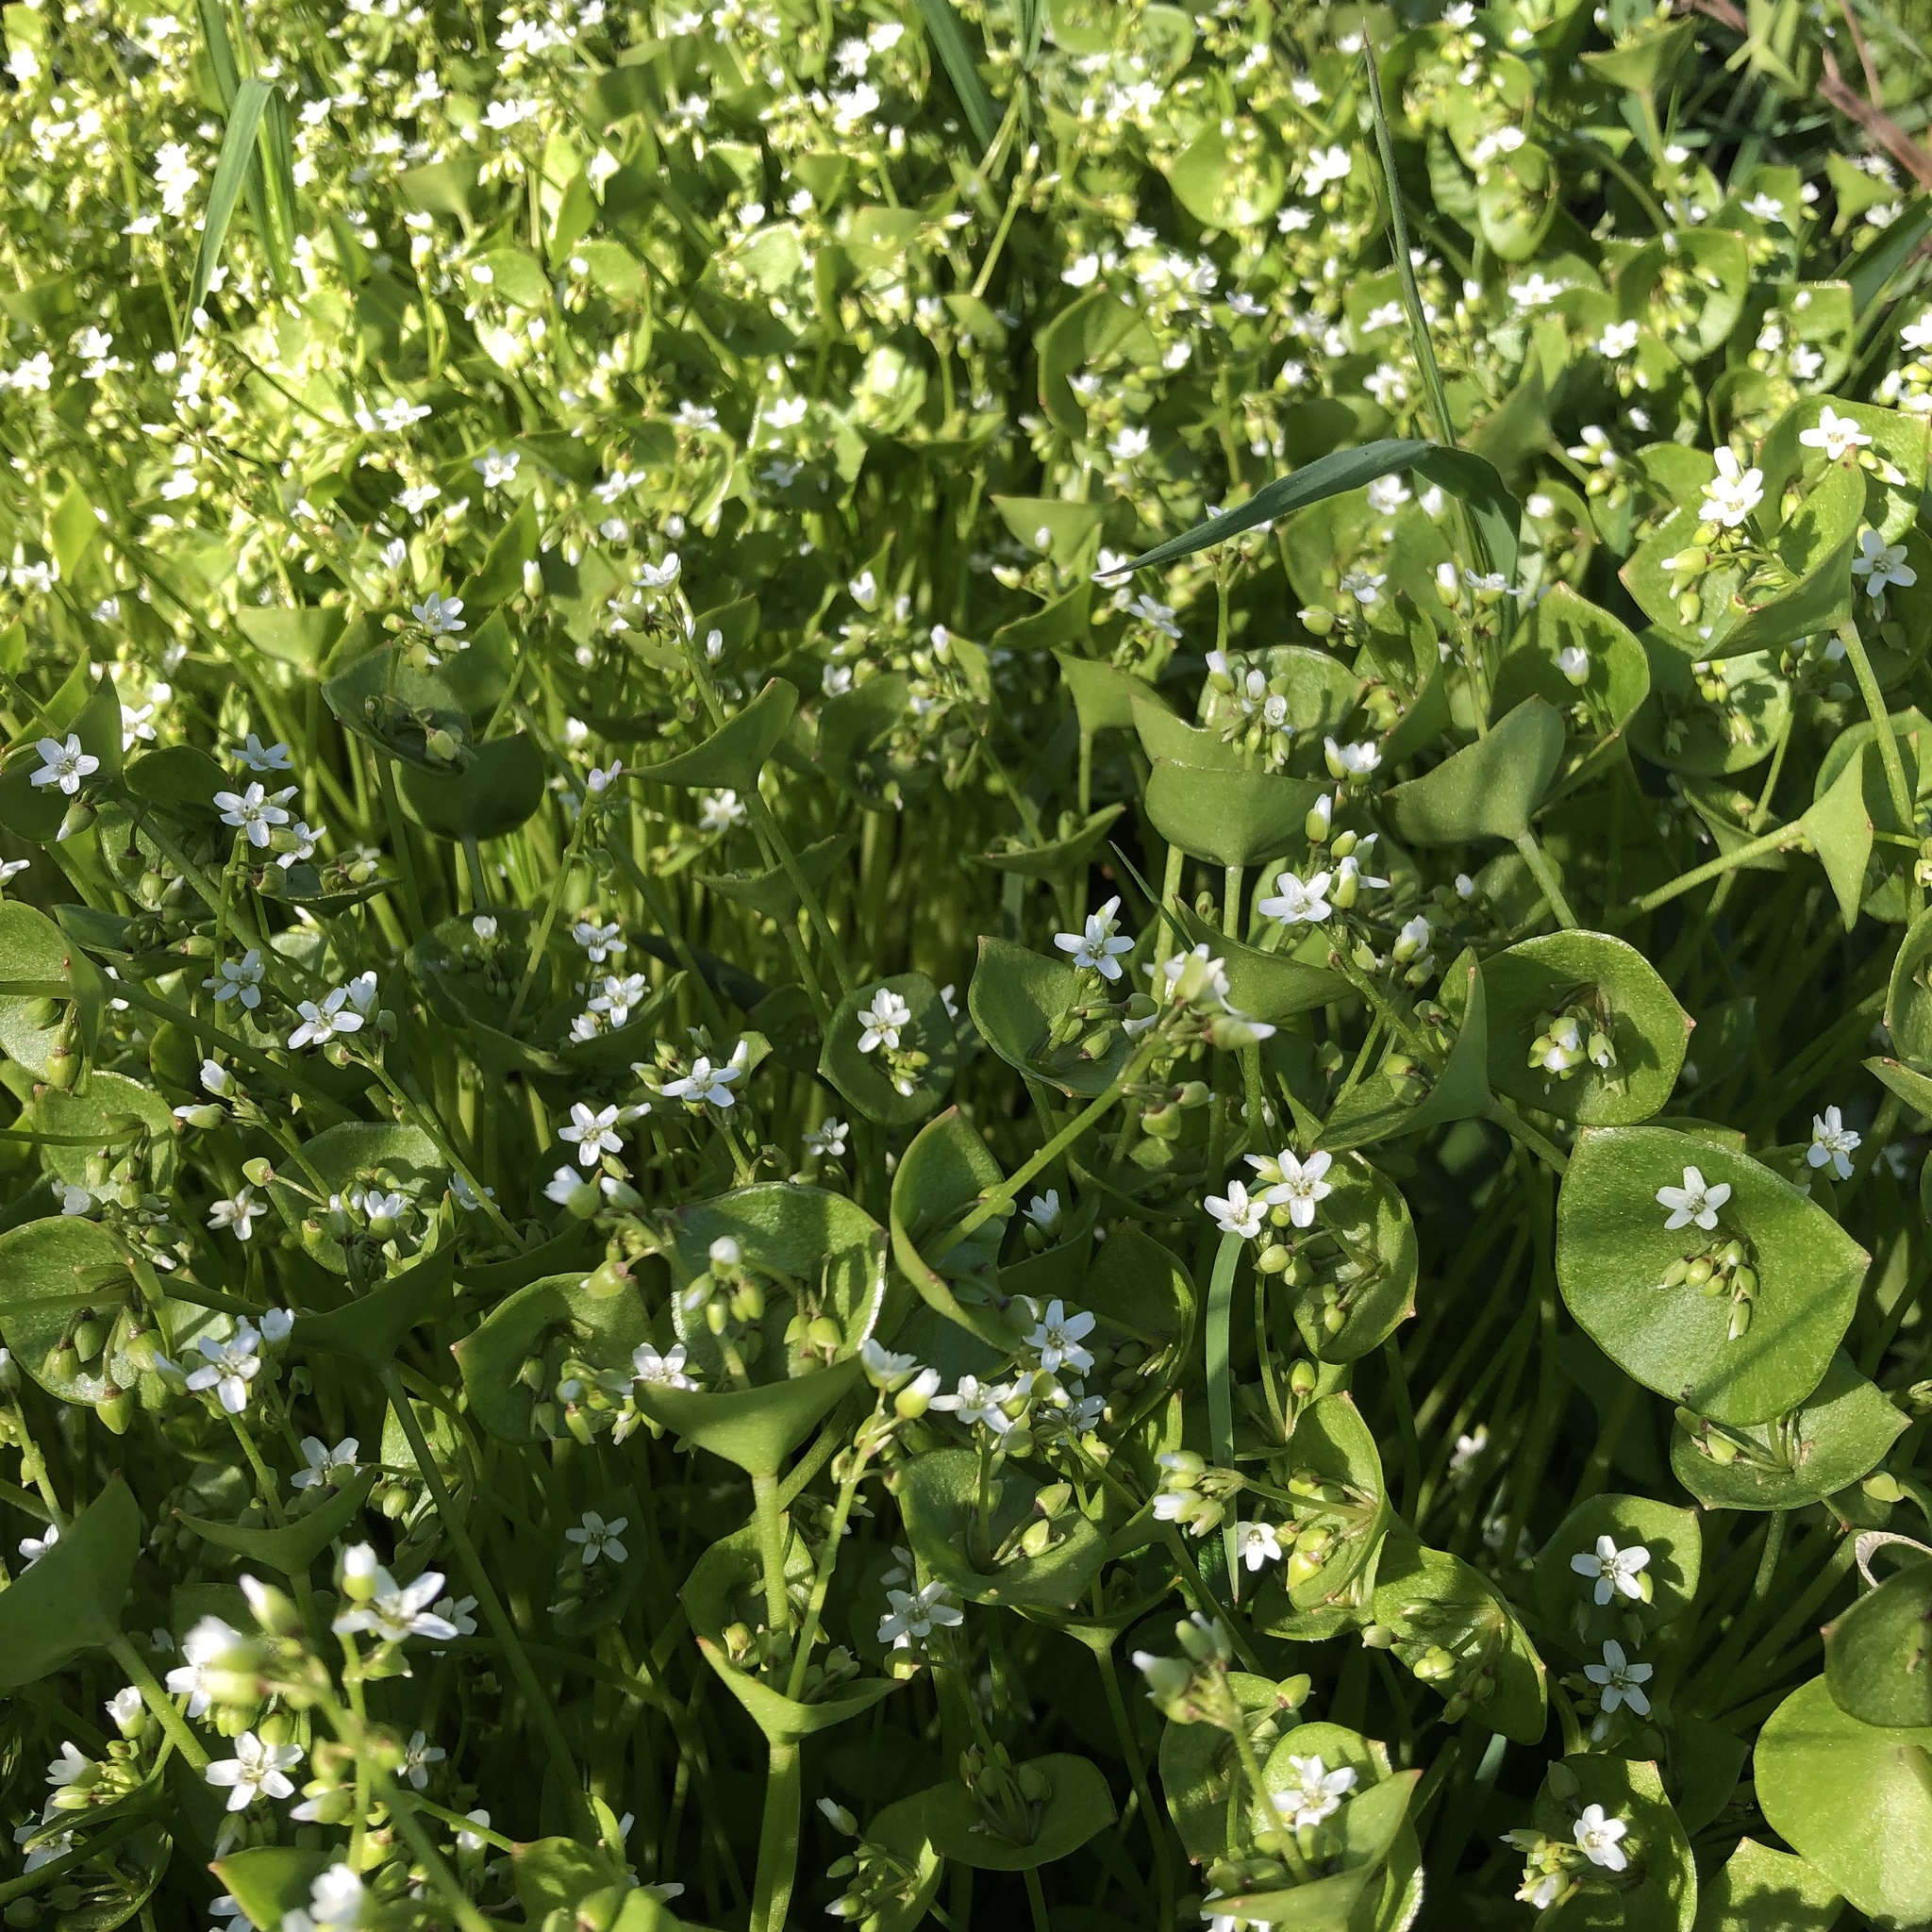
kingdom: Plantae
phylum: Tracheophyta
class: Magnoliopsida
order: Caryophyllales
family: Montiaceae
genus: Claytonia
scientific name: Claytonia perfoliata
